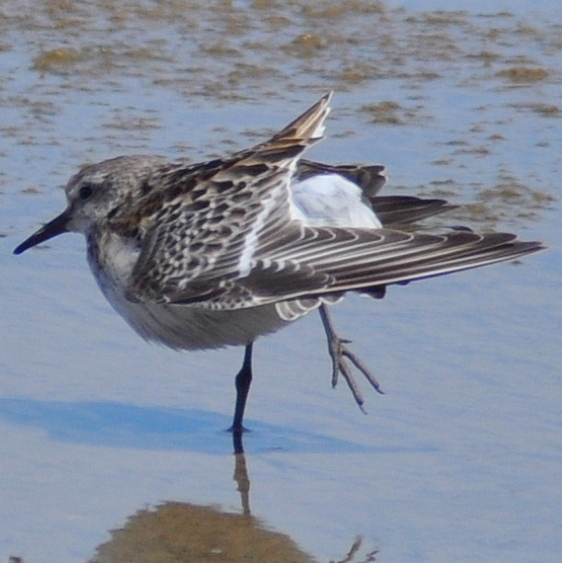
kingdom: Animalia
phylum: Chordata
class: Aves
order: Charadriiformes
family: Scolopacidae
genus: Calidris
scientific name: Calidris fuscicollis
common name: White-rumped sandpiper
